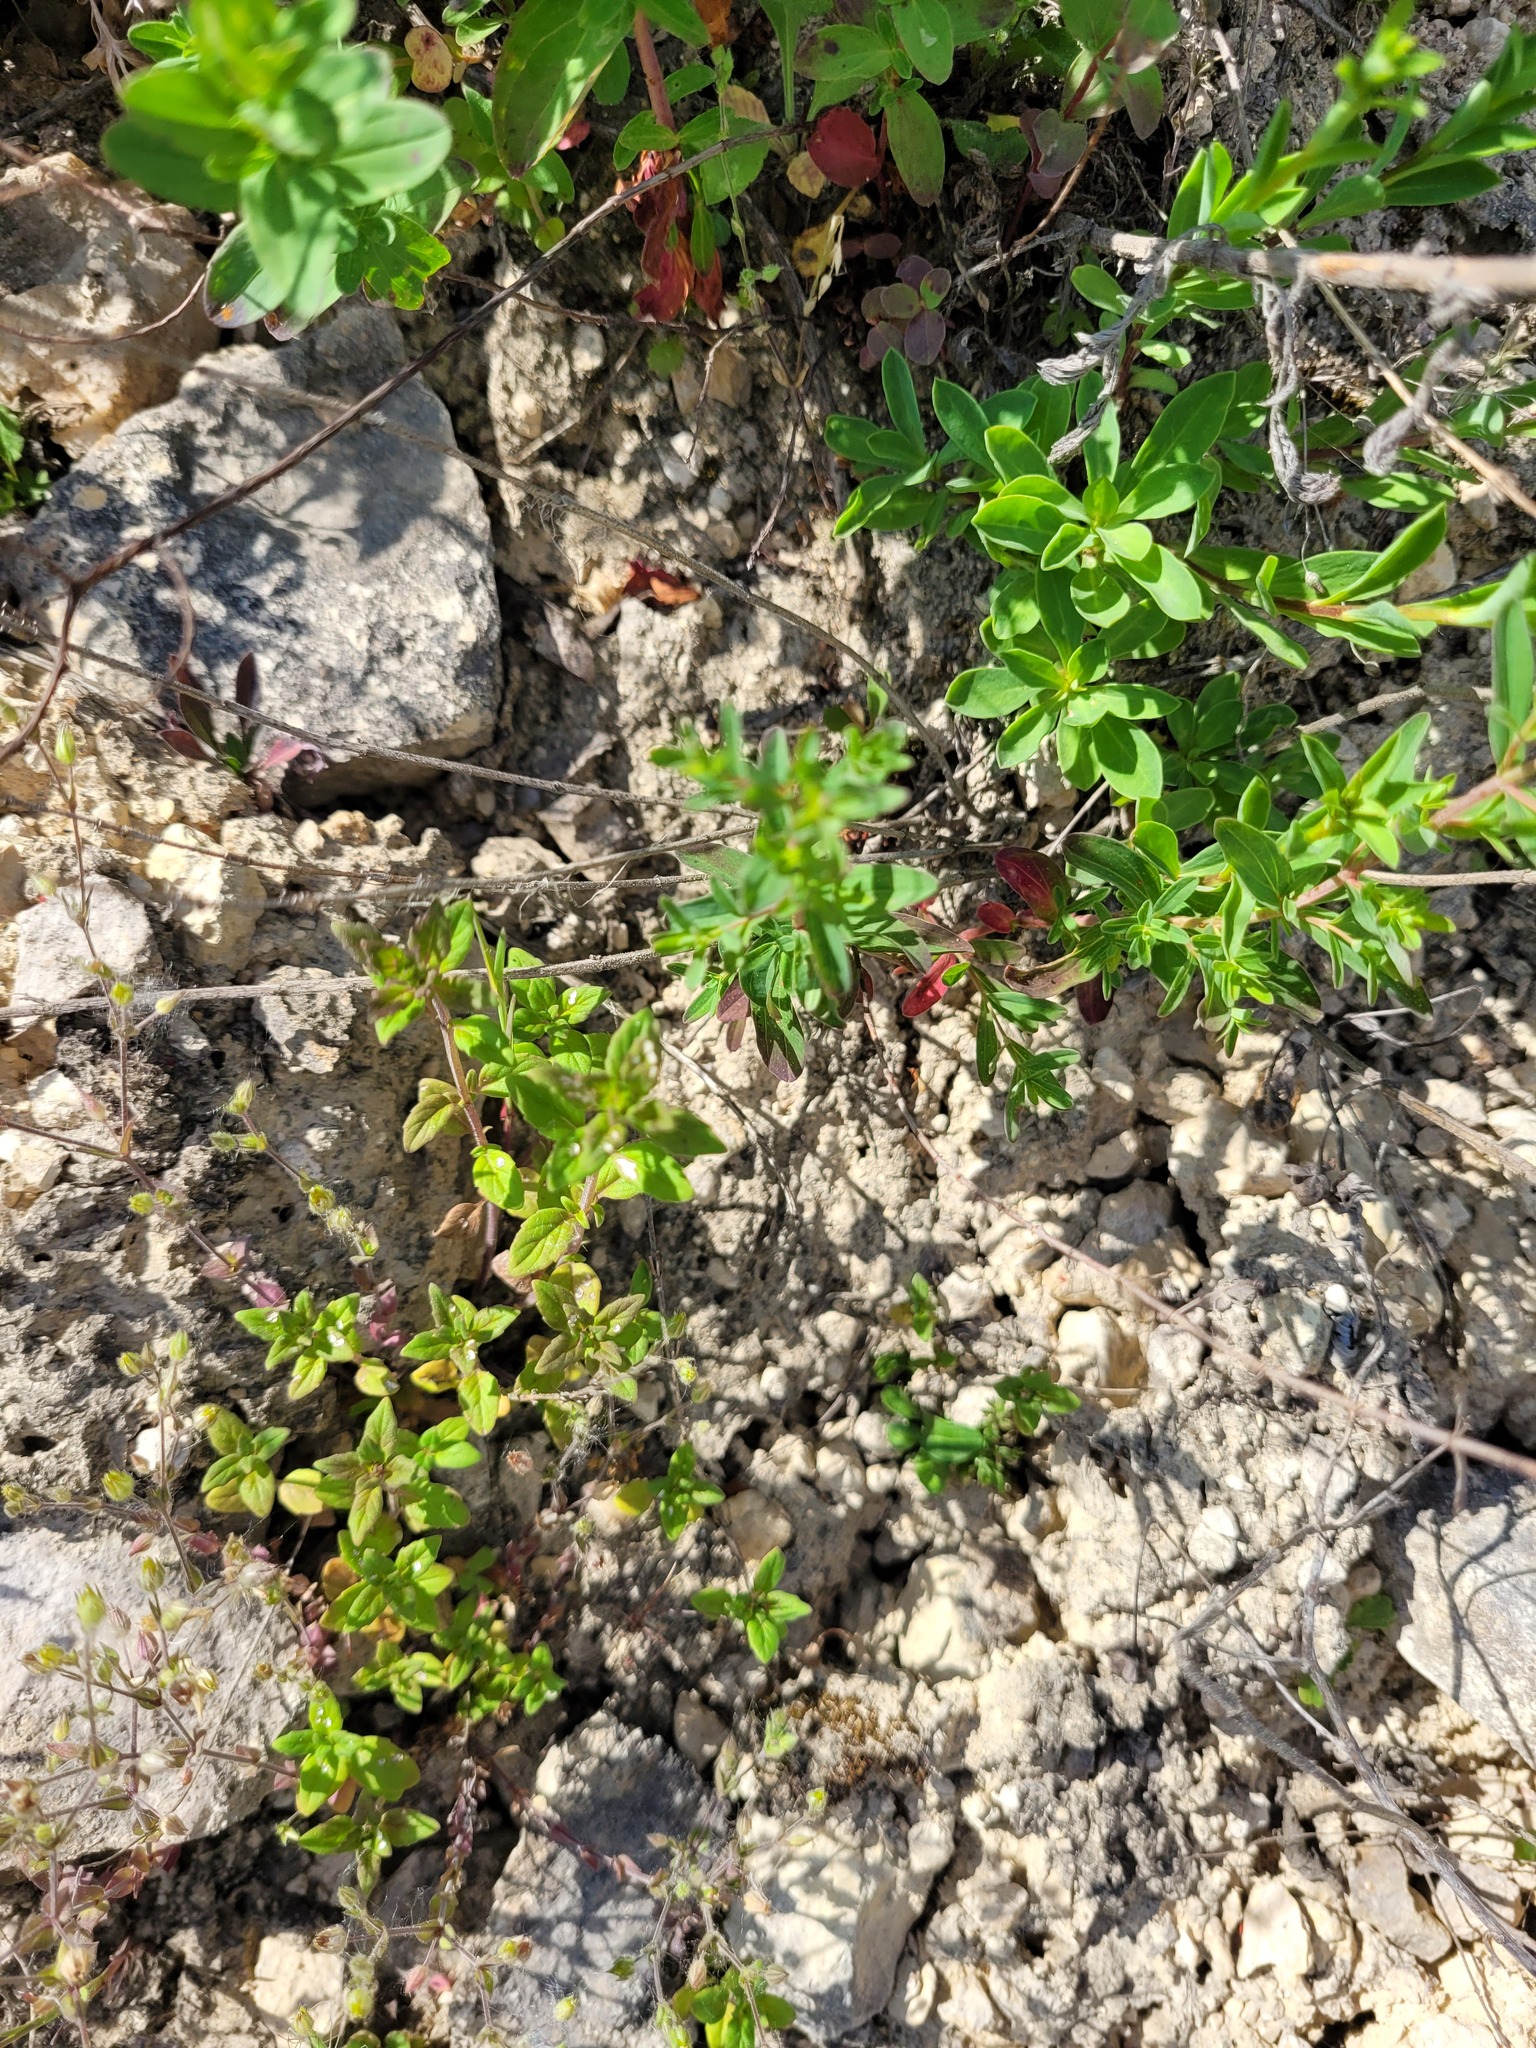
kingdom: Plantae
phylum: Tracheophyta
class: Magnoliopsida
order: Lamiales
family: Lamiaceae
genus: Clinopodium
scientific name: Clinopodium acinos
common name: Basil thyme
